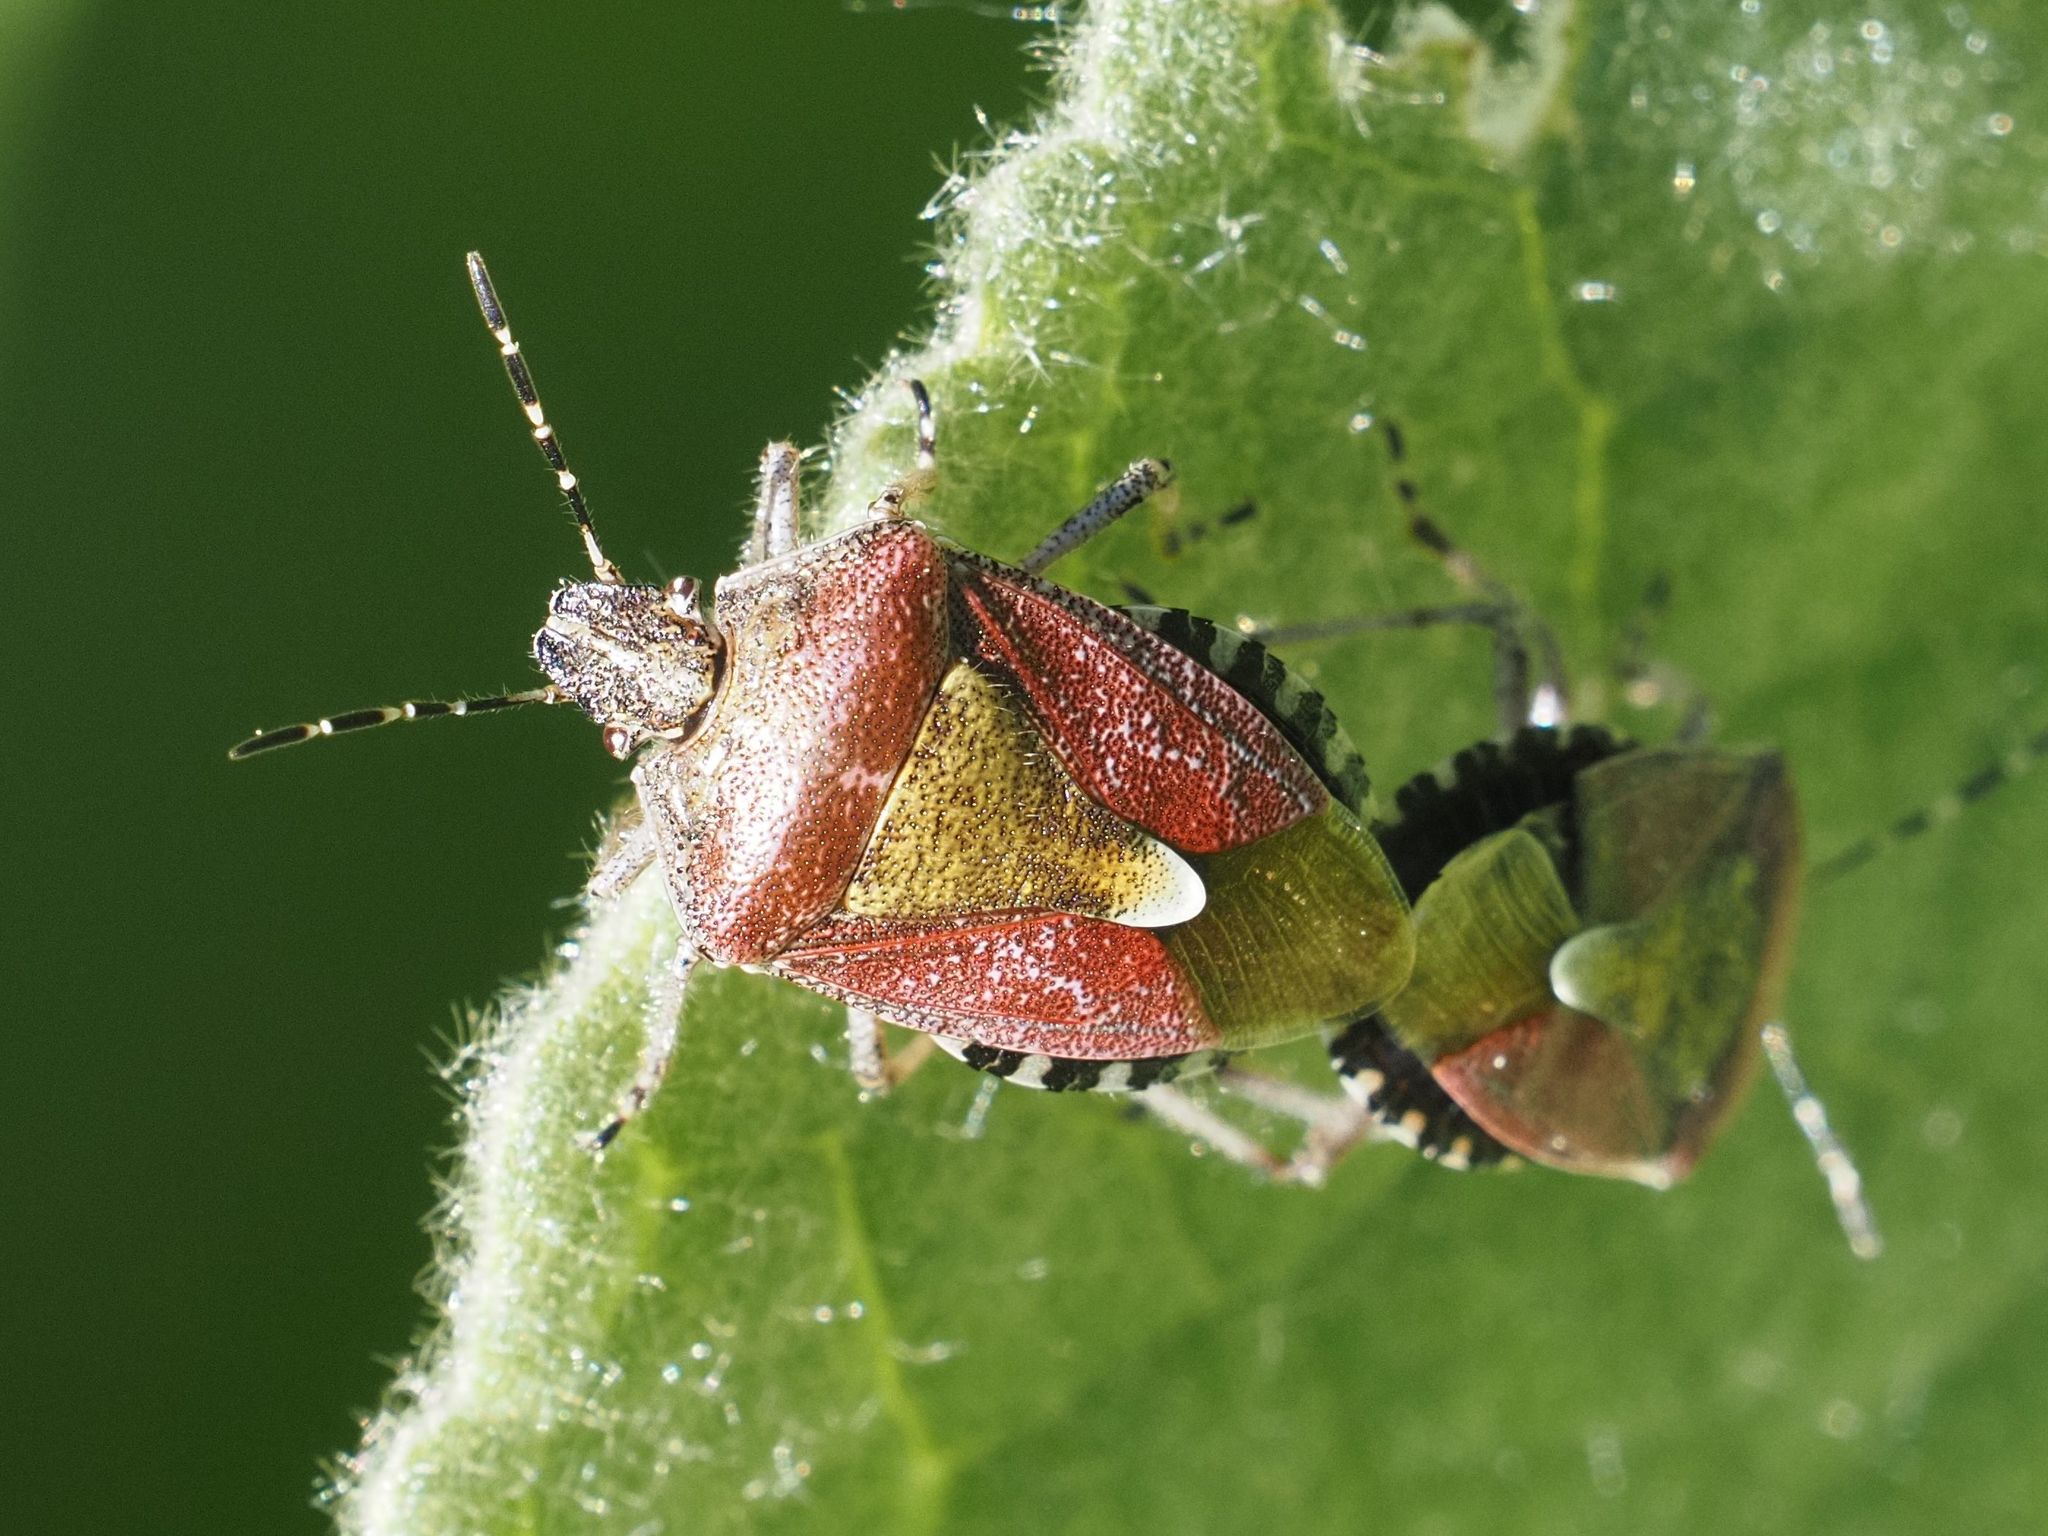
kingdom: Animalia
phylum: Arthropoda
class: Insecta
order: Hemiptera
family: Pentatomidae
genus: Dolycoris
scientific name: Dolycoris baccarum
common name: Sloe bug
